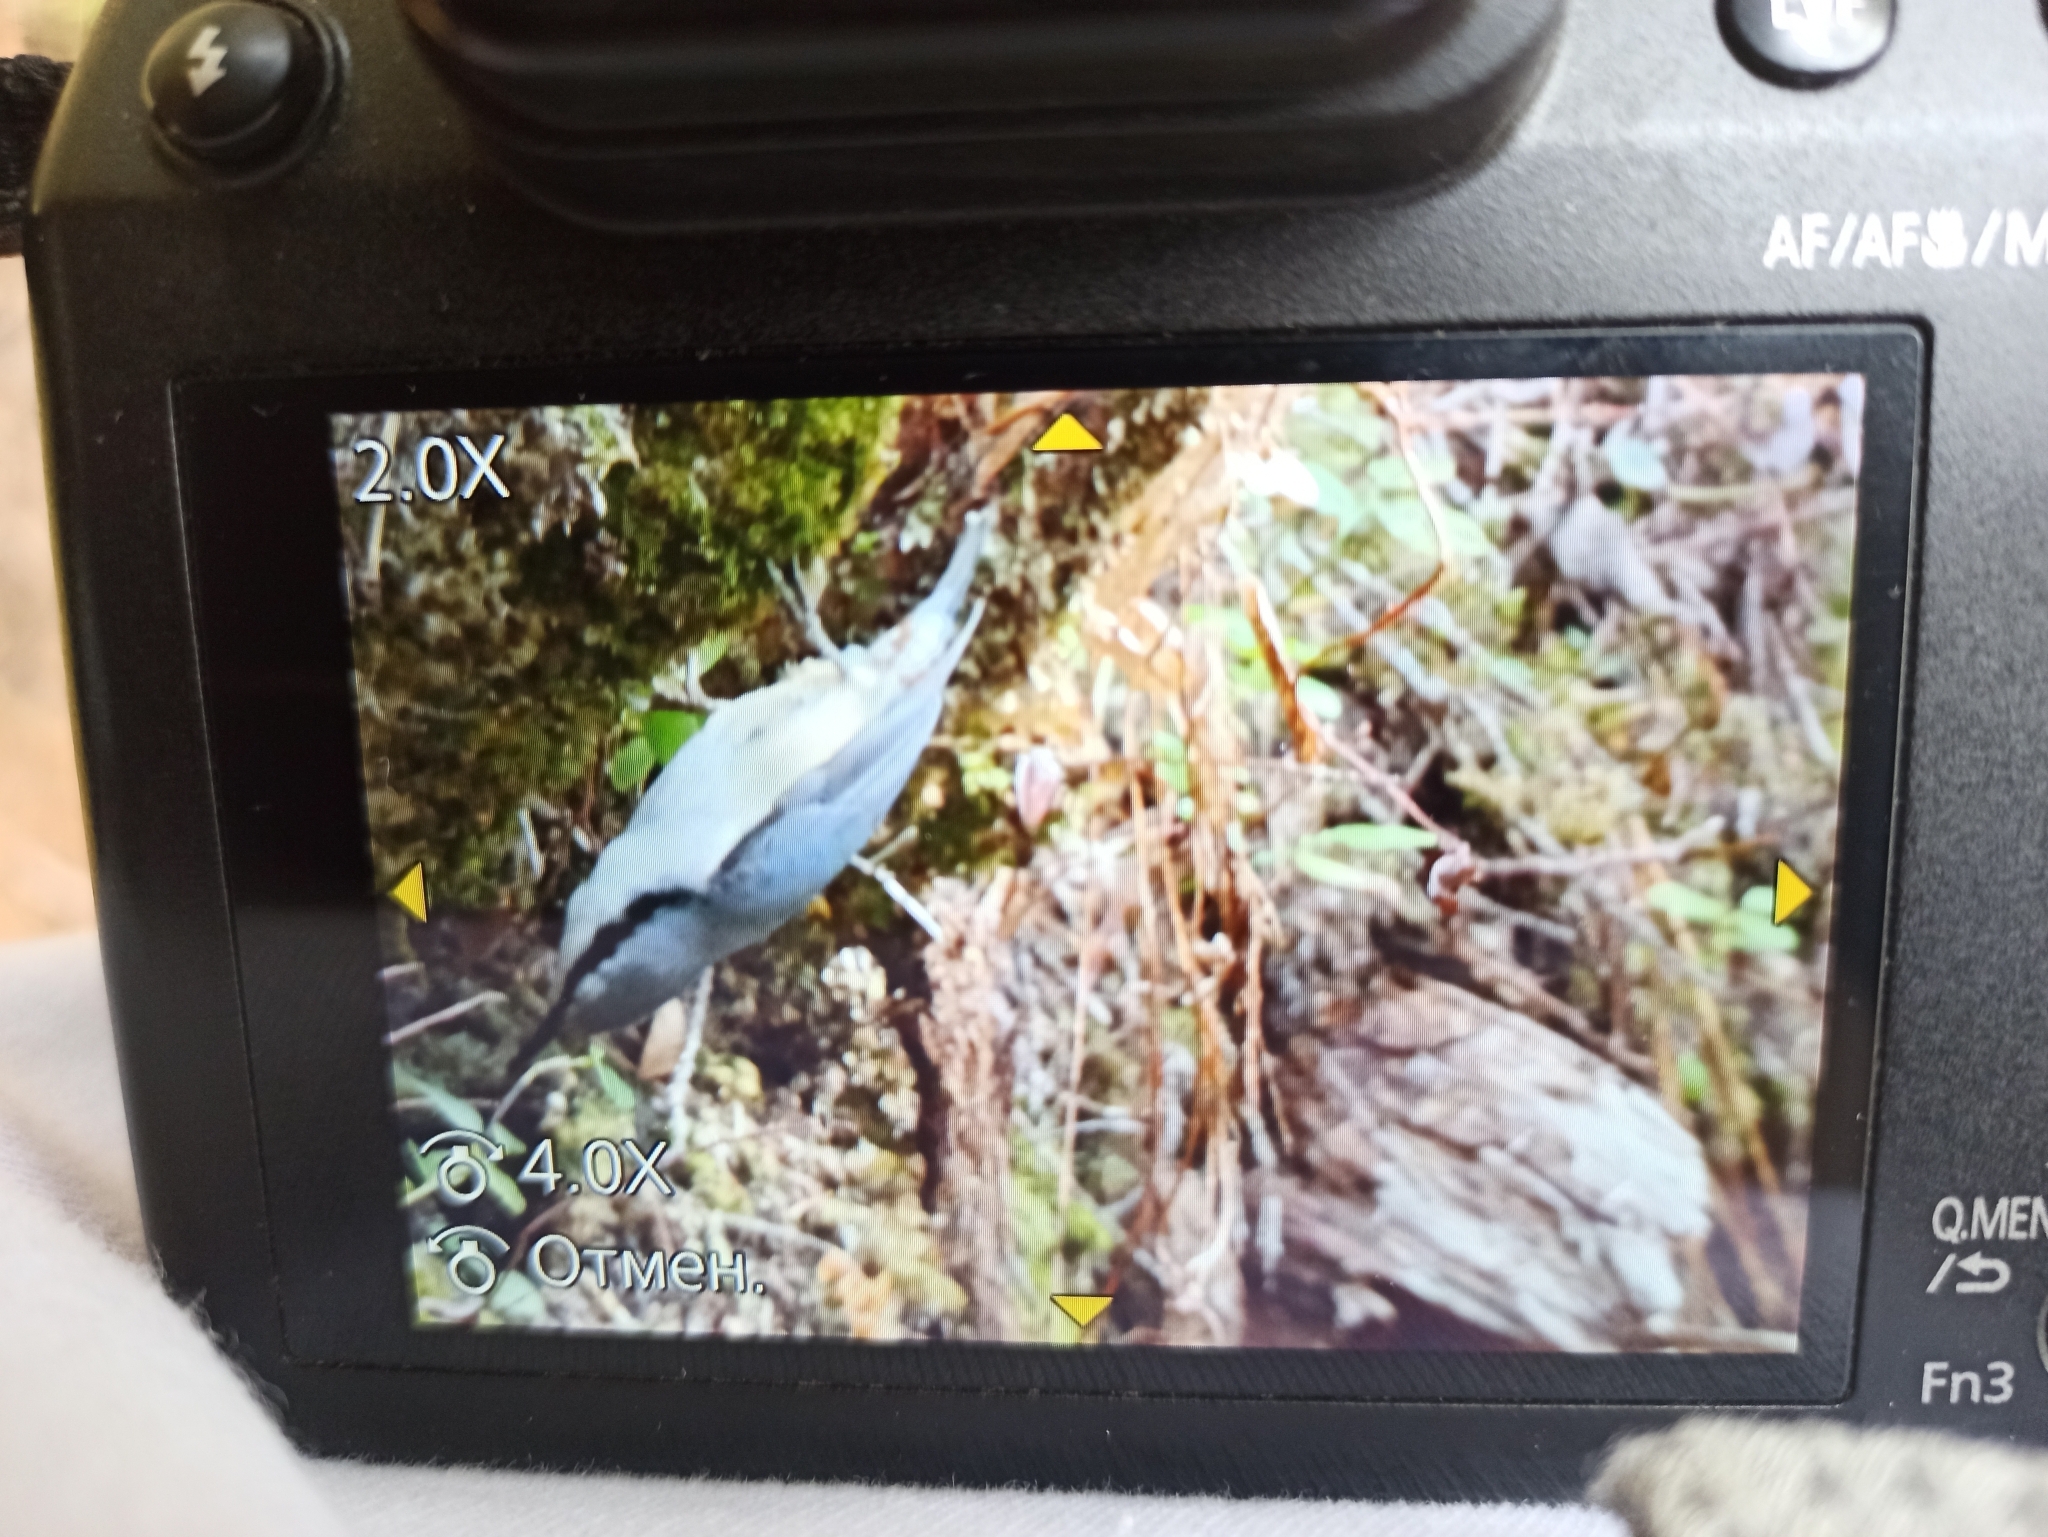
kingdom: Animalia
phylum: Chordata
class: Aves
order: Passeriformes
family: Sittidae
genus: Sitta
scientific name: Sitta europaea
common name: Eurasian nuthatch
